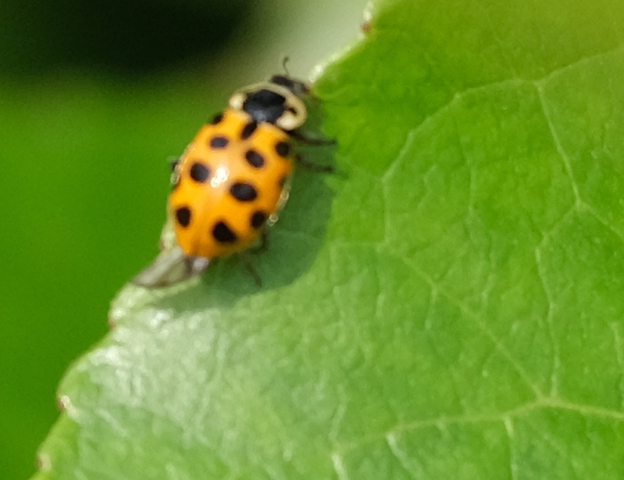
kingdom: Animalia
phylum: Arthropoda
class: Insecta
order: Coleoptera
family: Coccinellidae
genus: Hippodamia
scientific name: Hippodamia tredecimpunctata
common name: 13-spot ladybird
